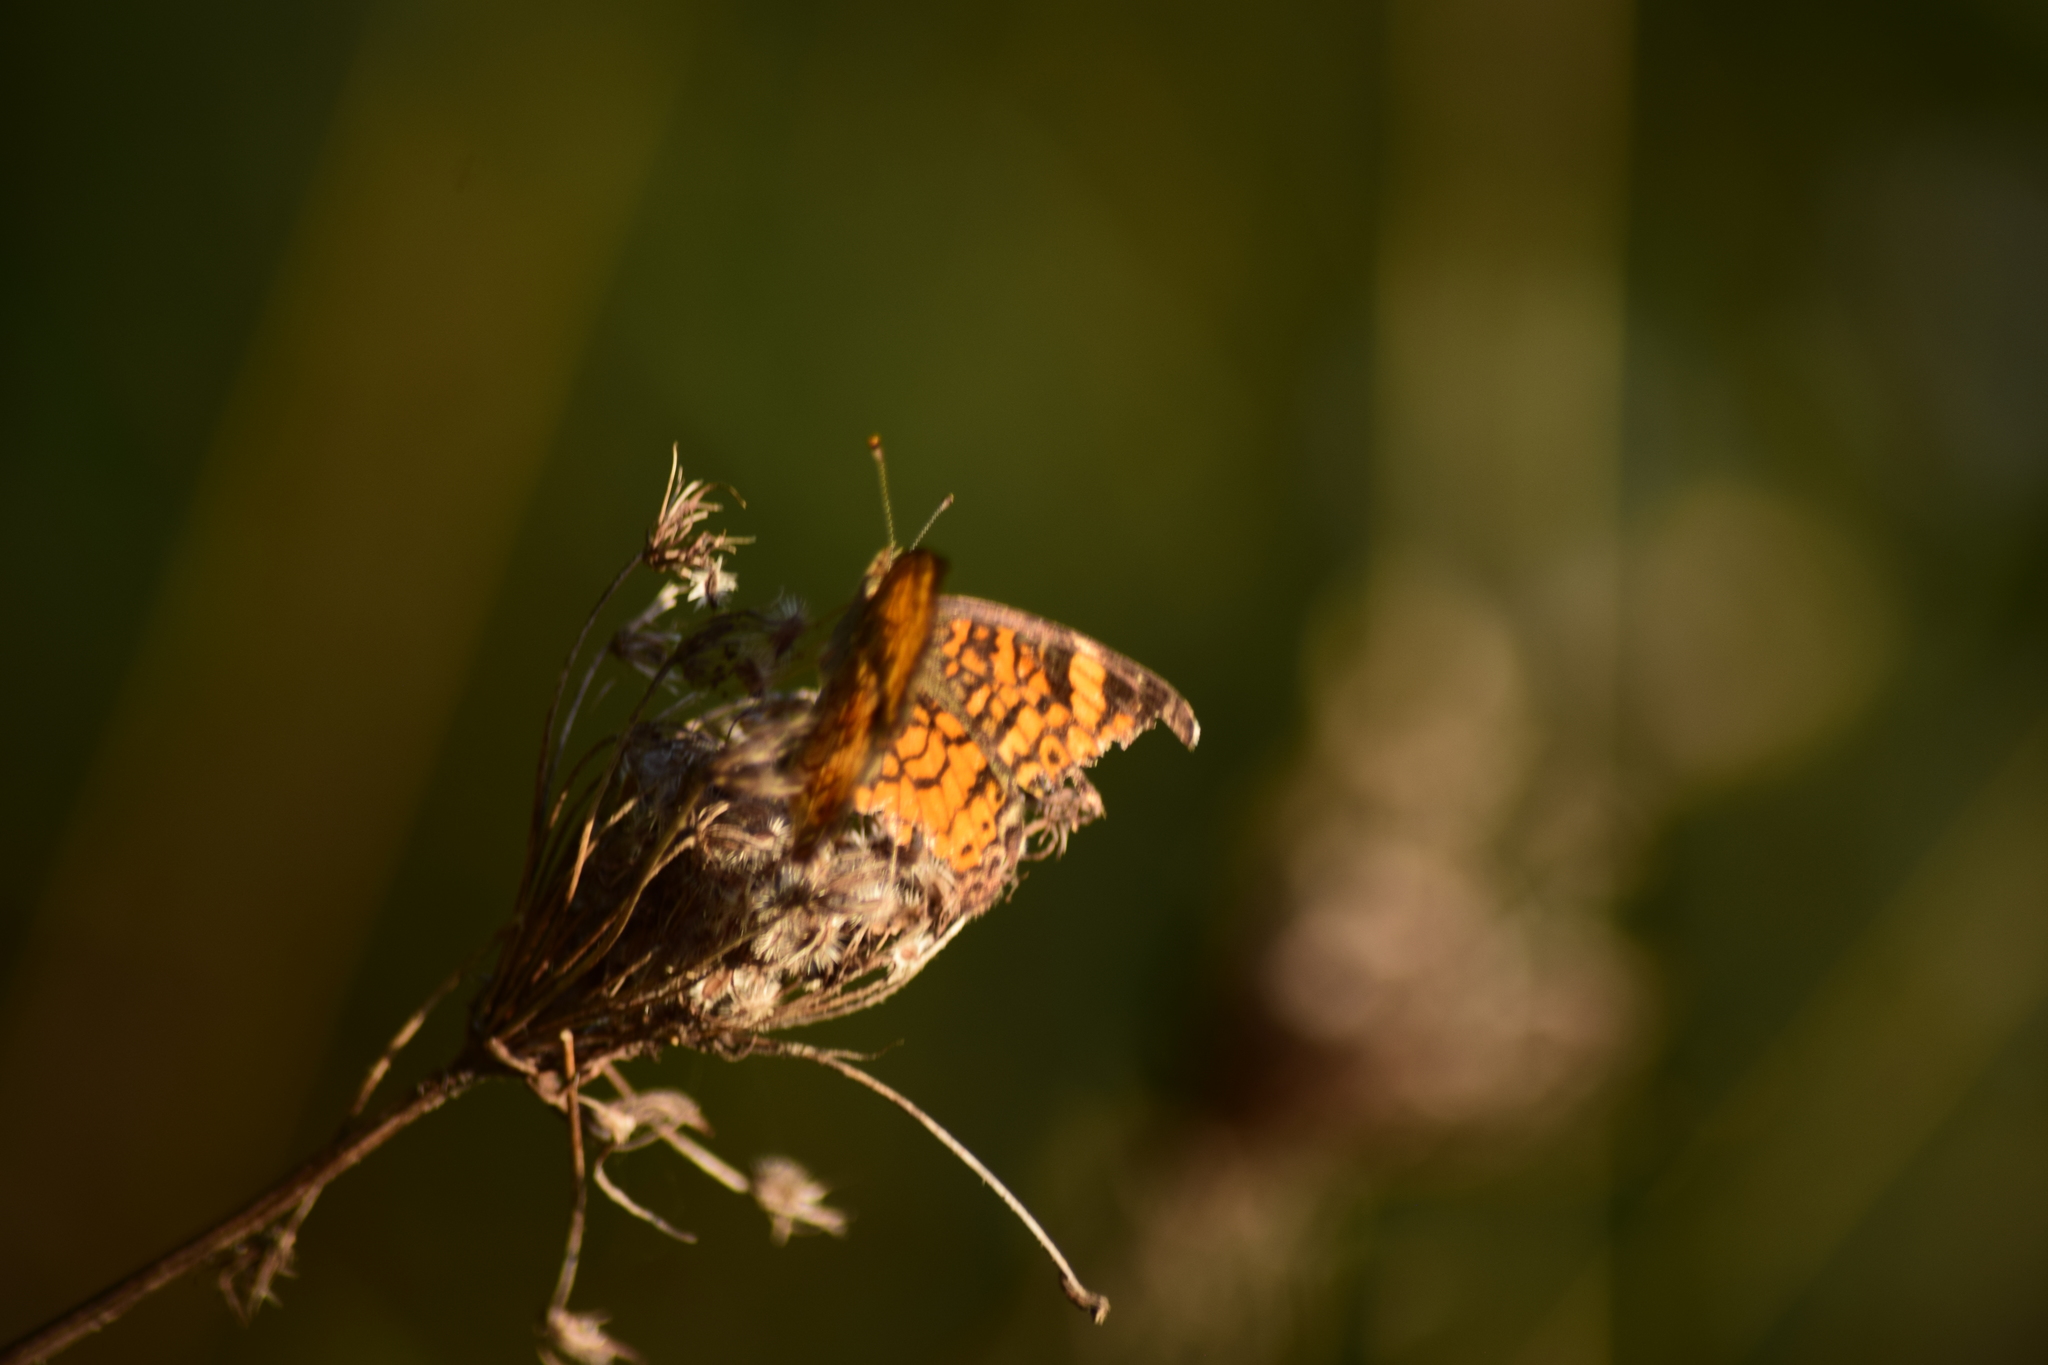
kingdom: Animalia
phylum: Arthropoda
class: Insecta
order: Lepidoptera
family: Nymphalidae
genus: Phyciodes
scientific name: Phyciodes tharos
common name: Pearl crescent
